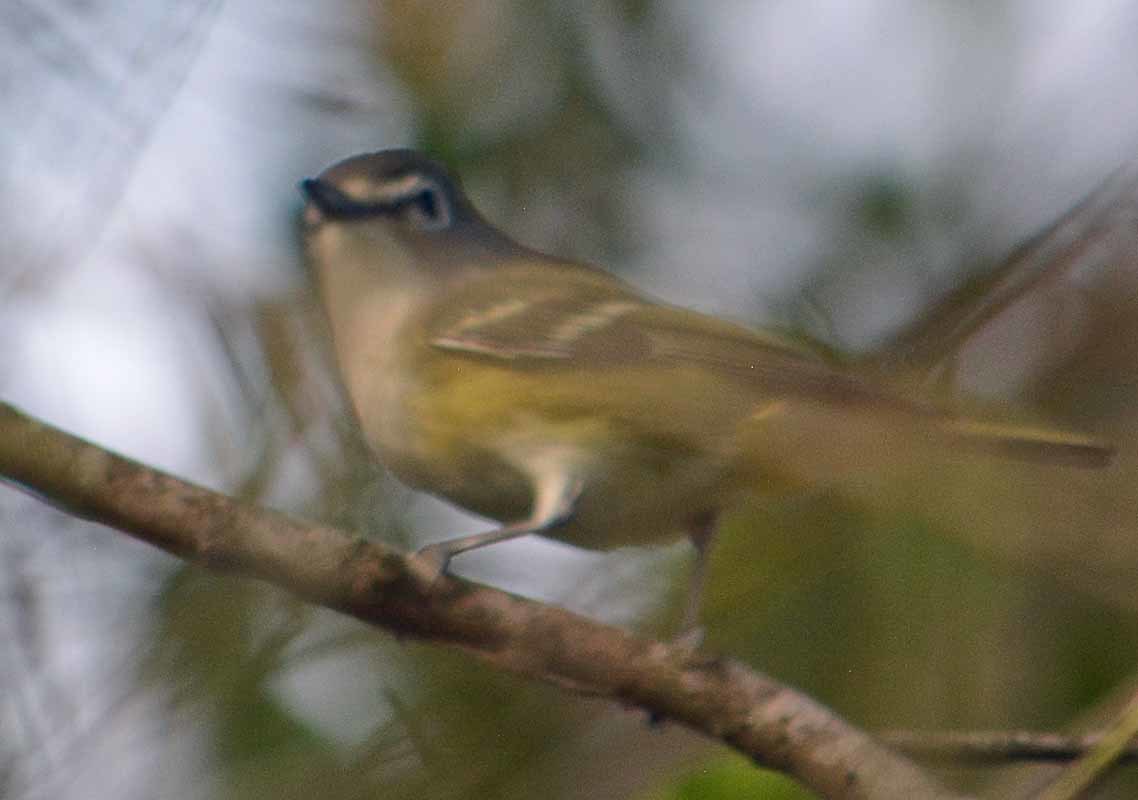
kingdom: Animalia
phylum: Chordata
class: Aves
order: Passeriformes
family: Vireonidae
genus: Vireo
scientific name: Vireo solitarius
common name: Blue-headed vireo
